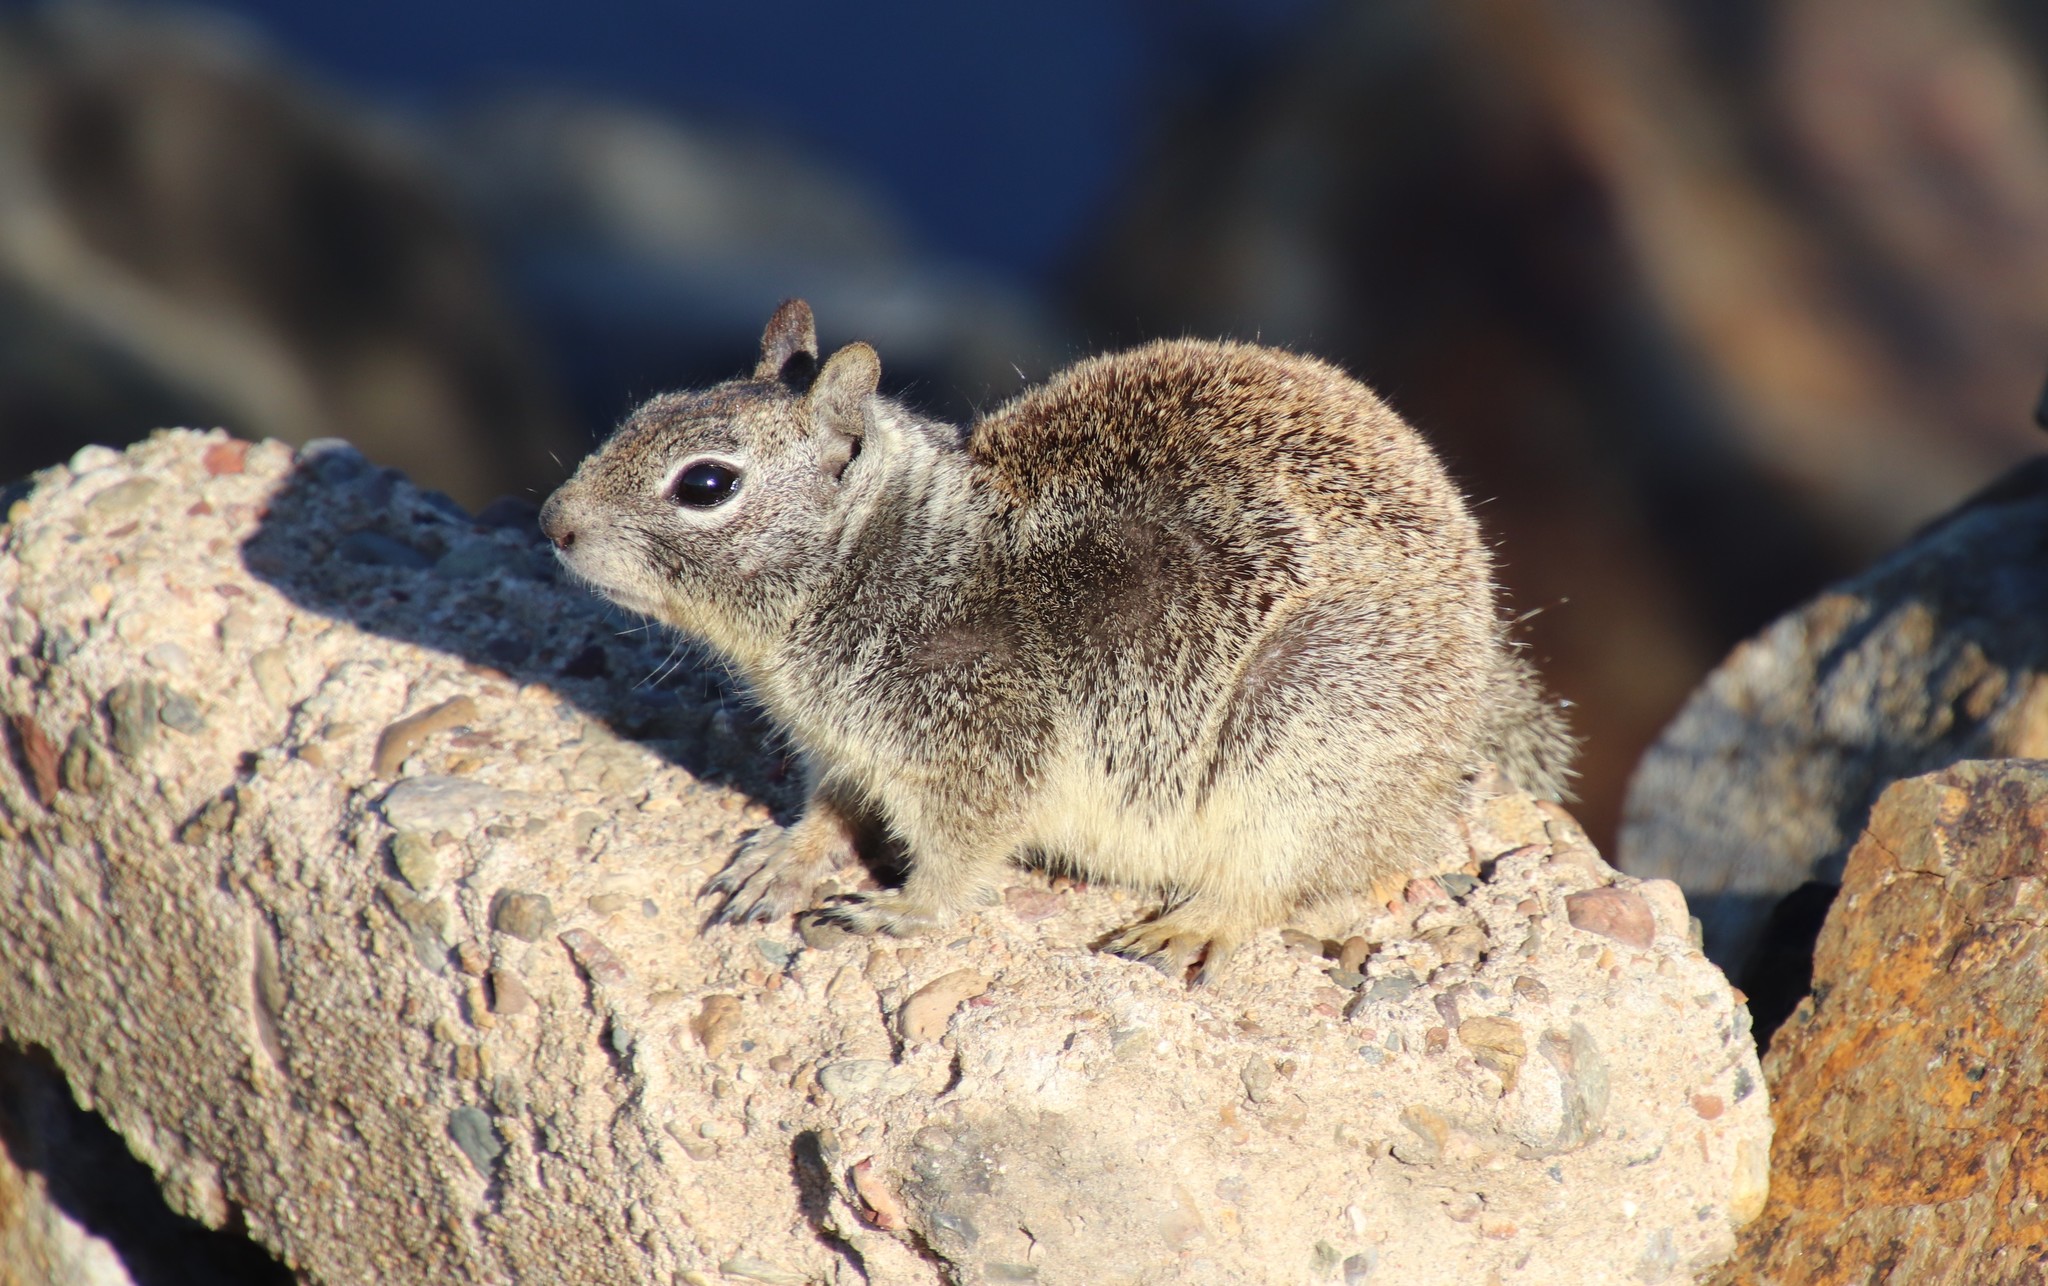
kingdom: Animalia
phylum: Chordata
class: Mammalia
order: Rodentia
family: Sciuridae
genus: Otospermophilus
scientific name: Otospermophilus beecheyi
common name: California ground squirrel
